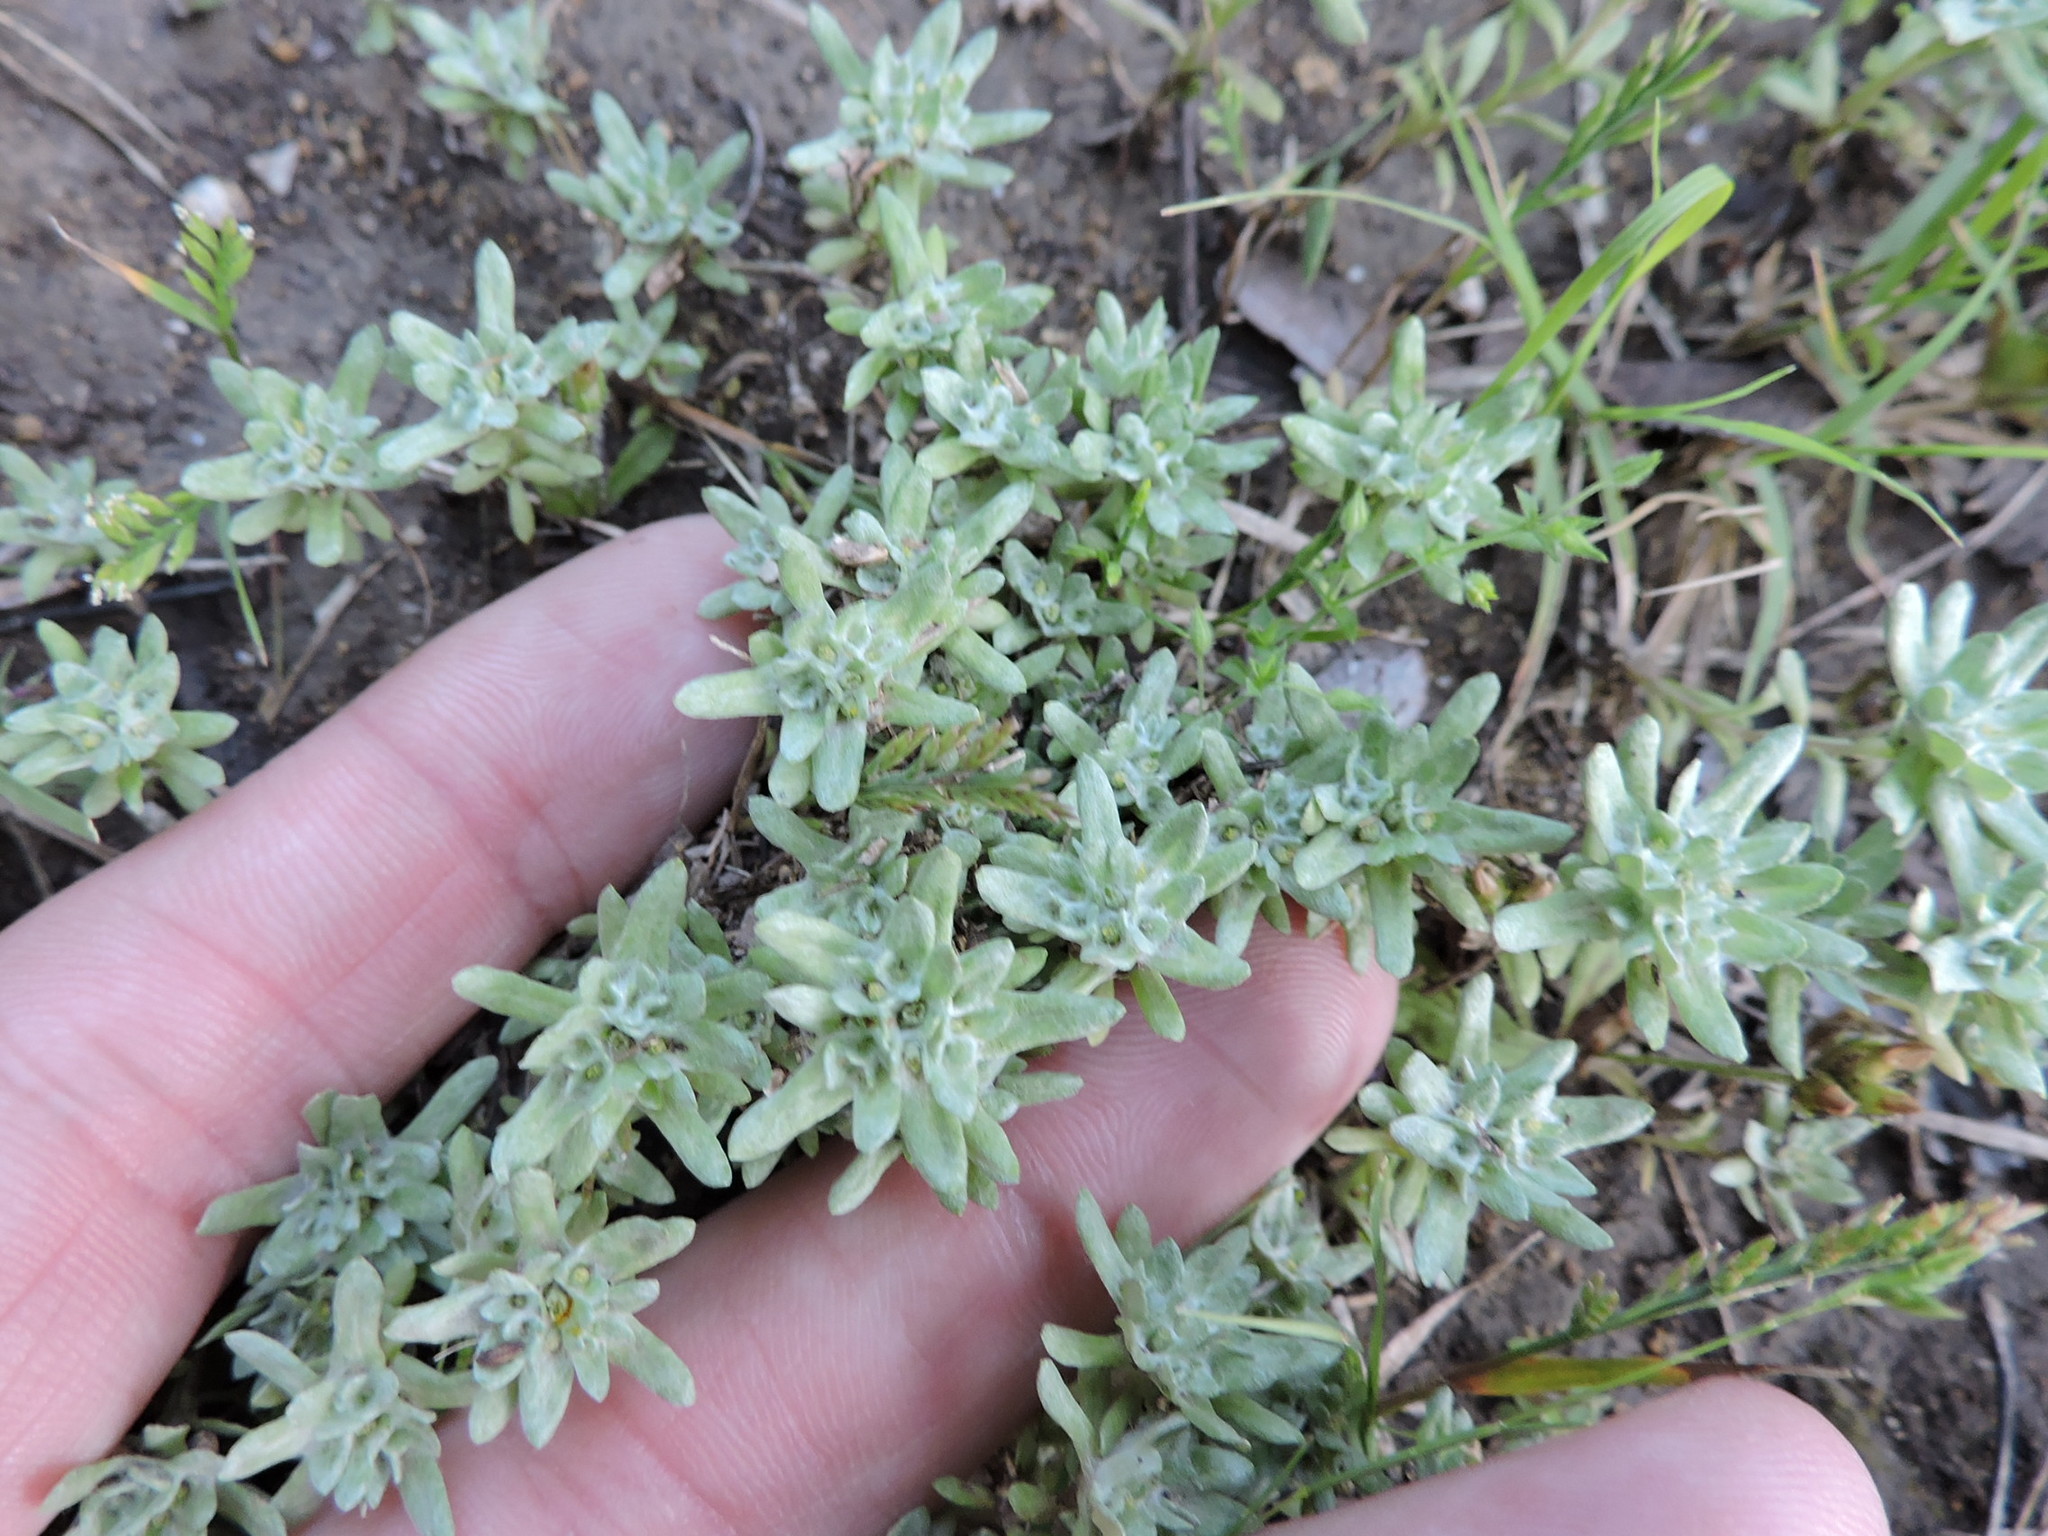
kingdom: Plantae
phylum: Tracheophyta
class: Magnoliopsida
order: Asterales
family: Asteraceae
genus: Diaperia
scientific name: Diaperia prolifera
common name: Big-head rabbit-tobacco
